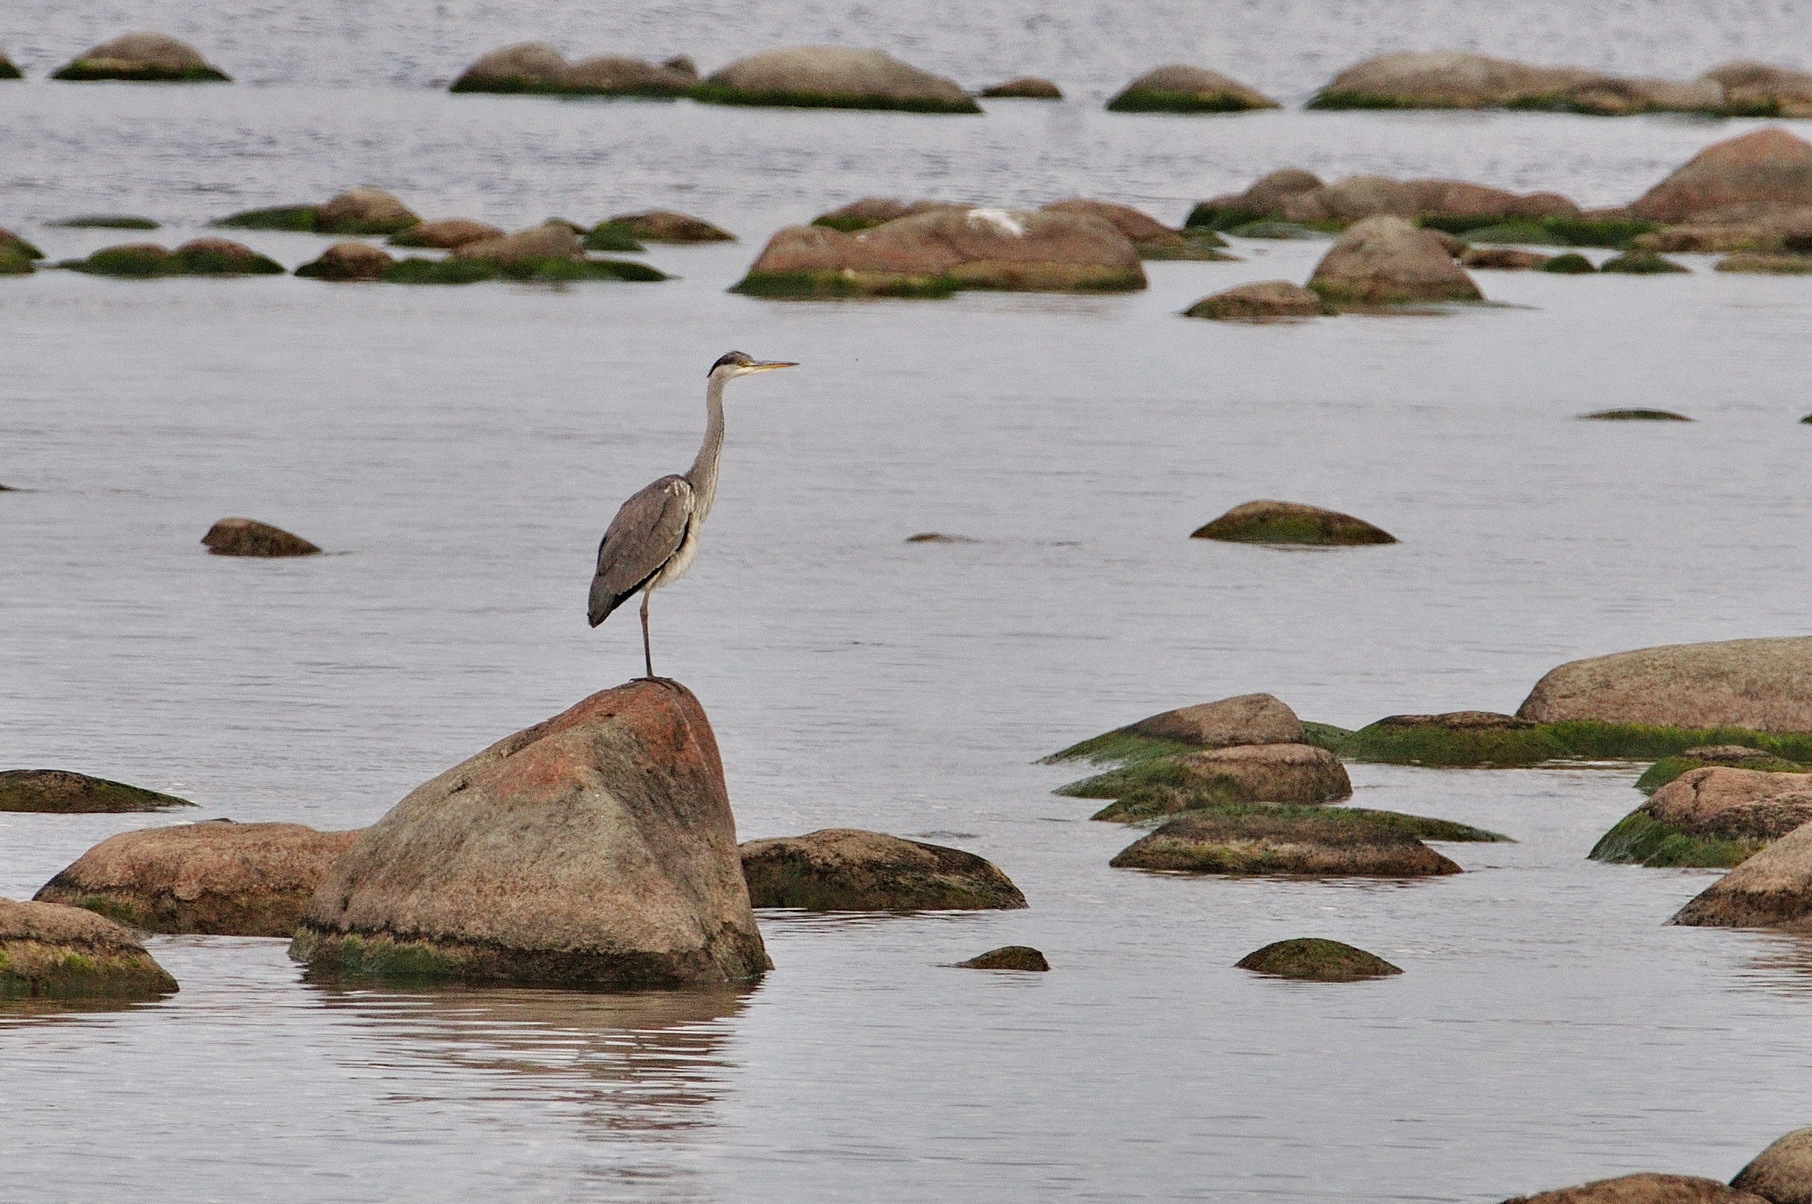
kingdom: Animalia
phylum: Chordata
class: Aves
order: Pelecaniformes
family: Ardeidae
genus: Ardea
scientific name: Ardea cinerea
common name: Grey heron
